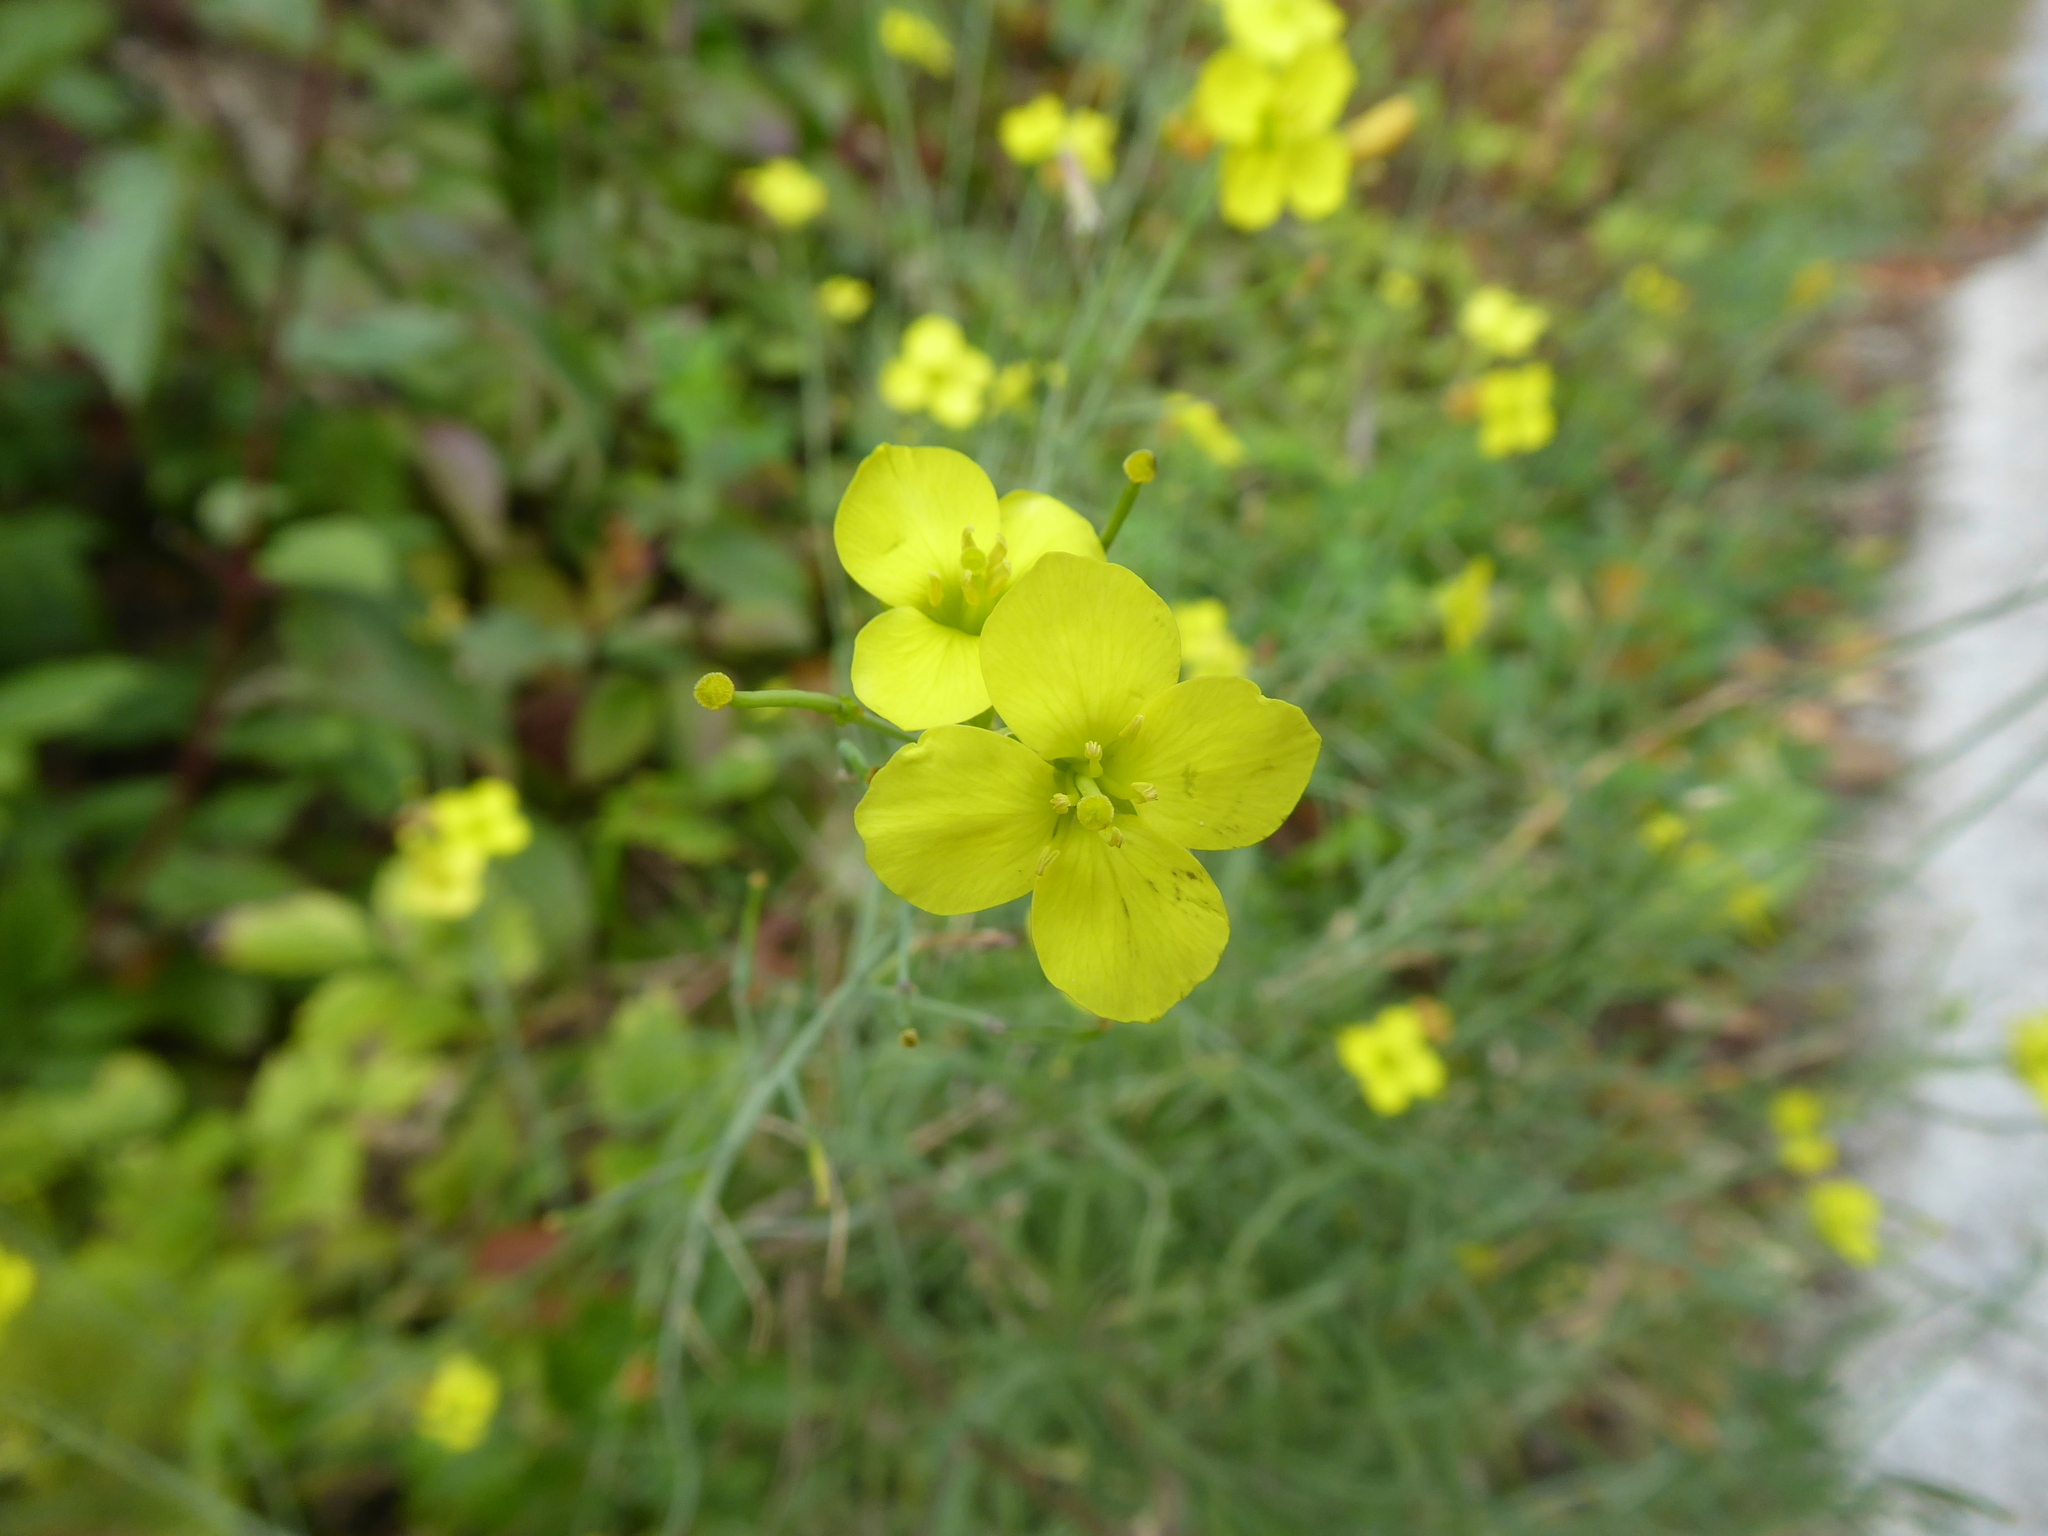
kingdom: Plantae
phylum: Tracheophyta
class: Magnoliopsida
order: Brassicales
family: Brassicaceae
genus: Diplotaxis
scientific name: Diplotaxis tenuifolia
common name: Perennial wall-rocket
